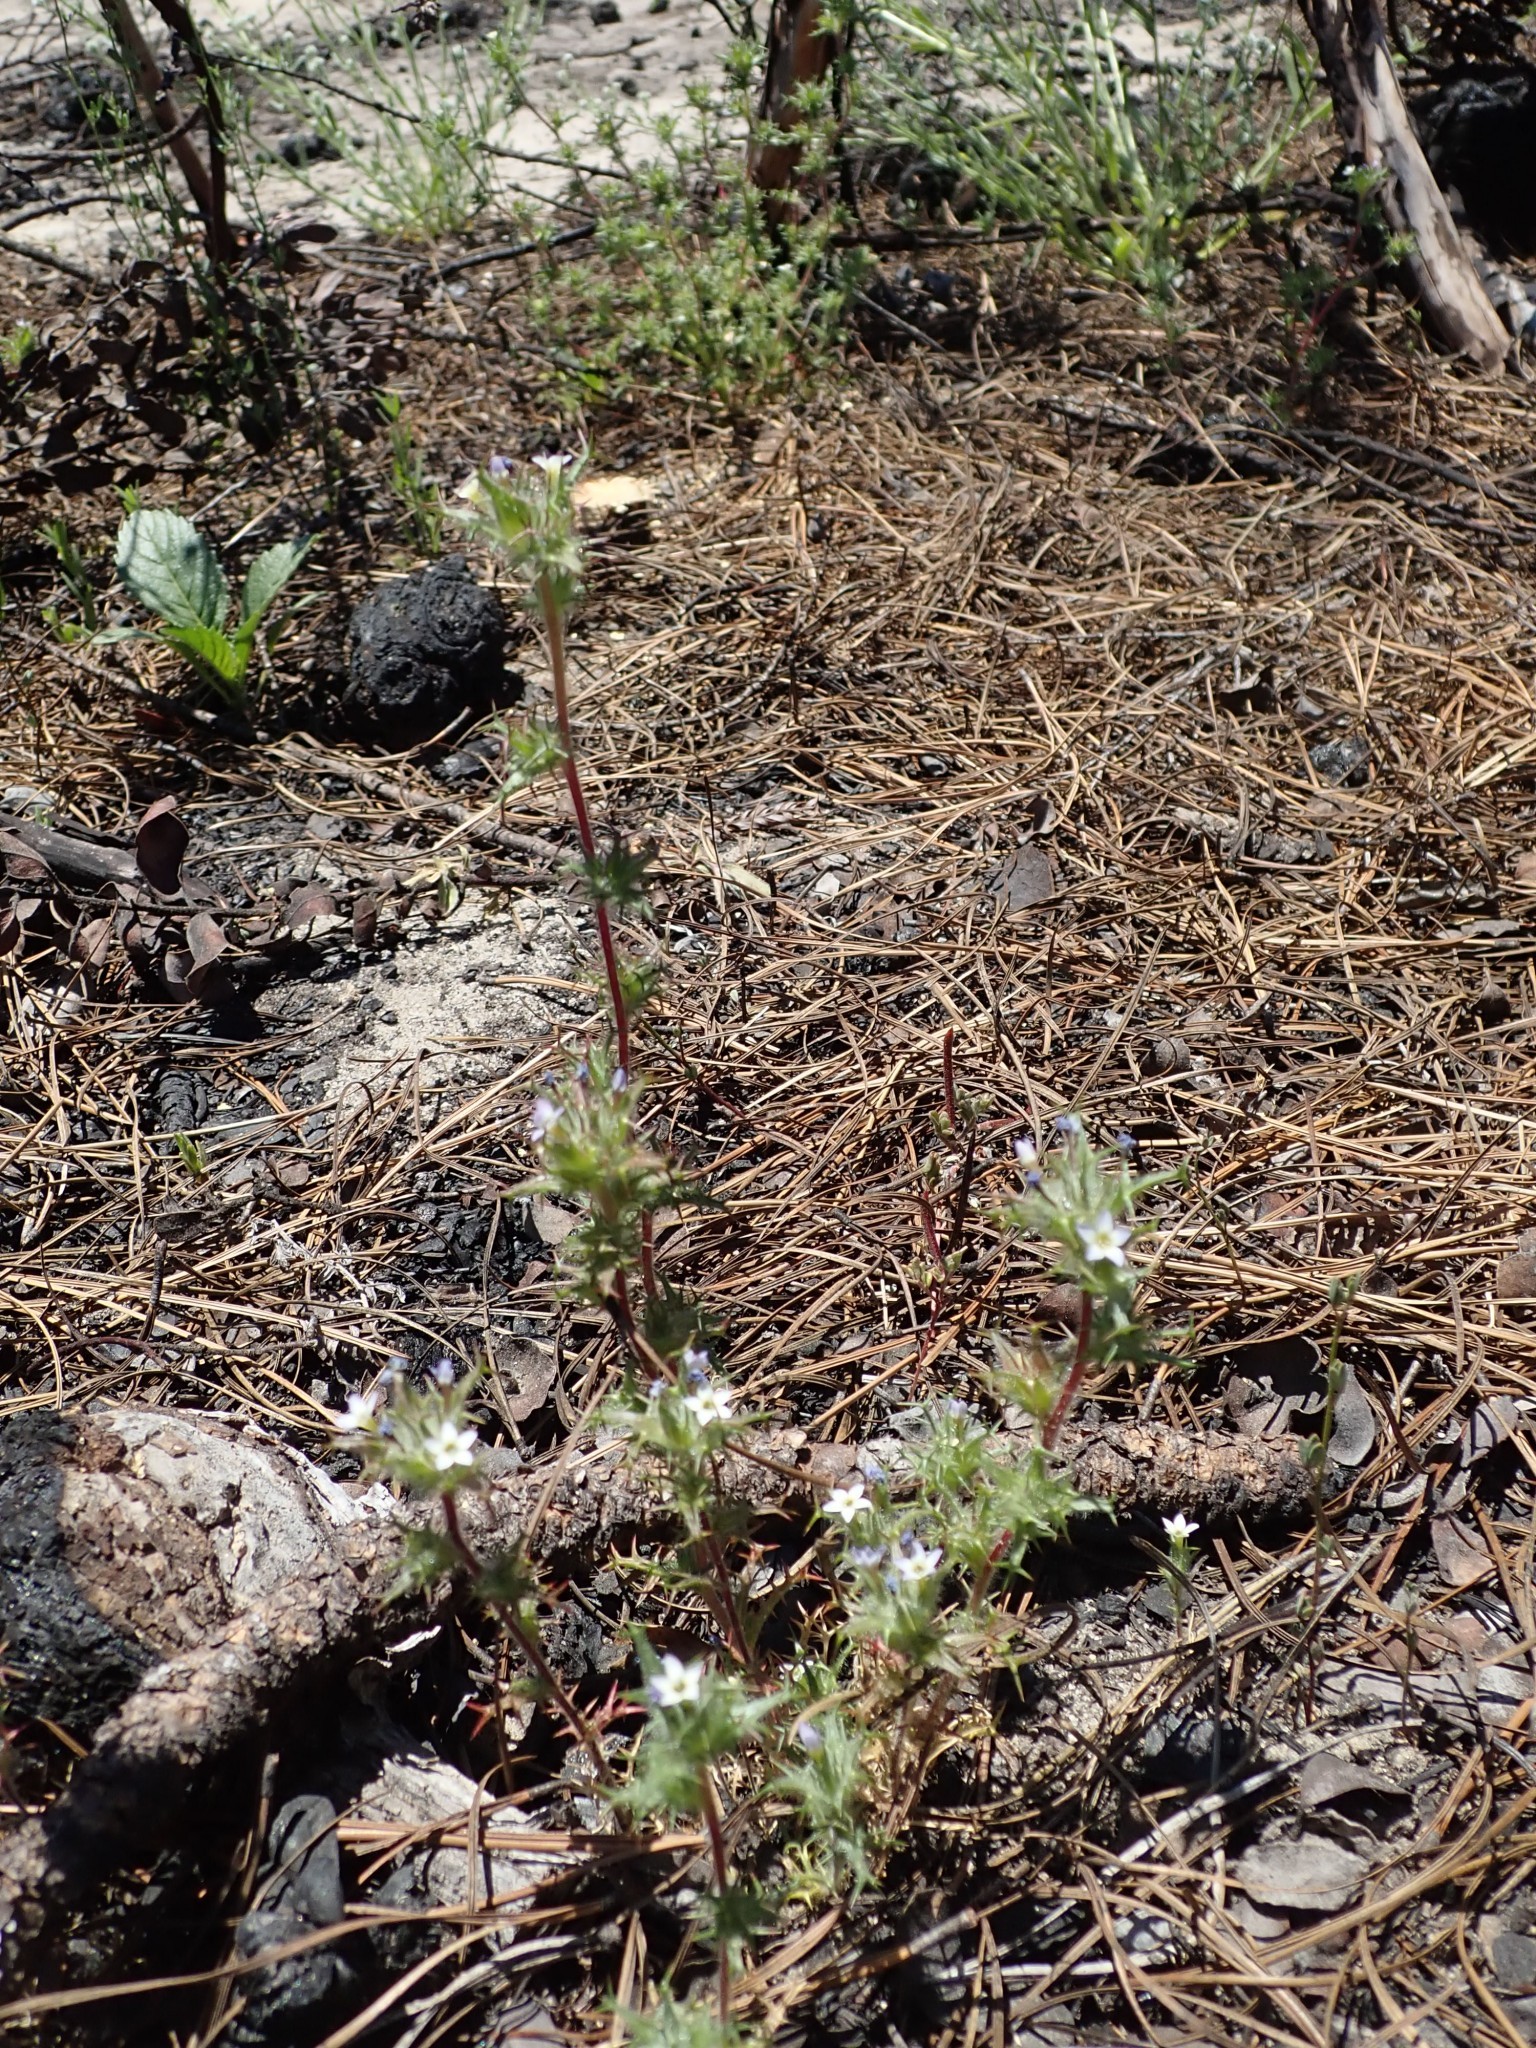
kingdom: Plantae
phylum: Tracheophyta
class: Magnoliopsida
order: Ericales
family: Polemoniaceae
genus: Navarretia
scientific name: Navarretia hamata
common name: Hooked navarretia
